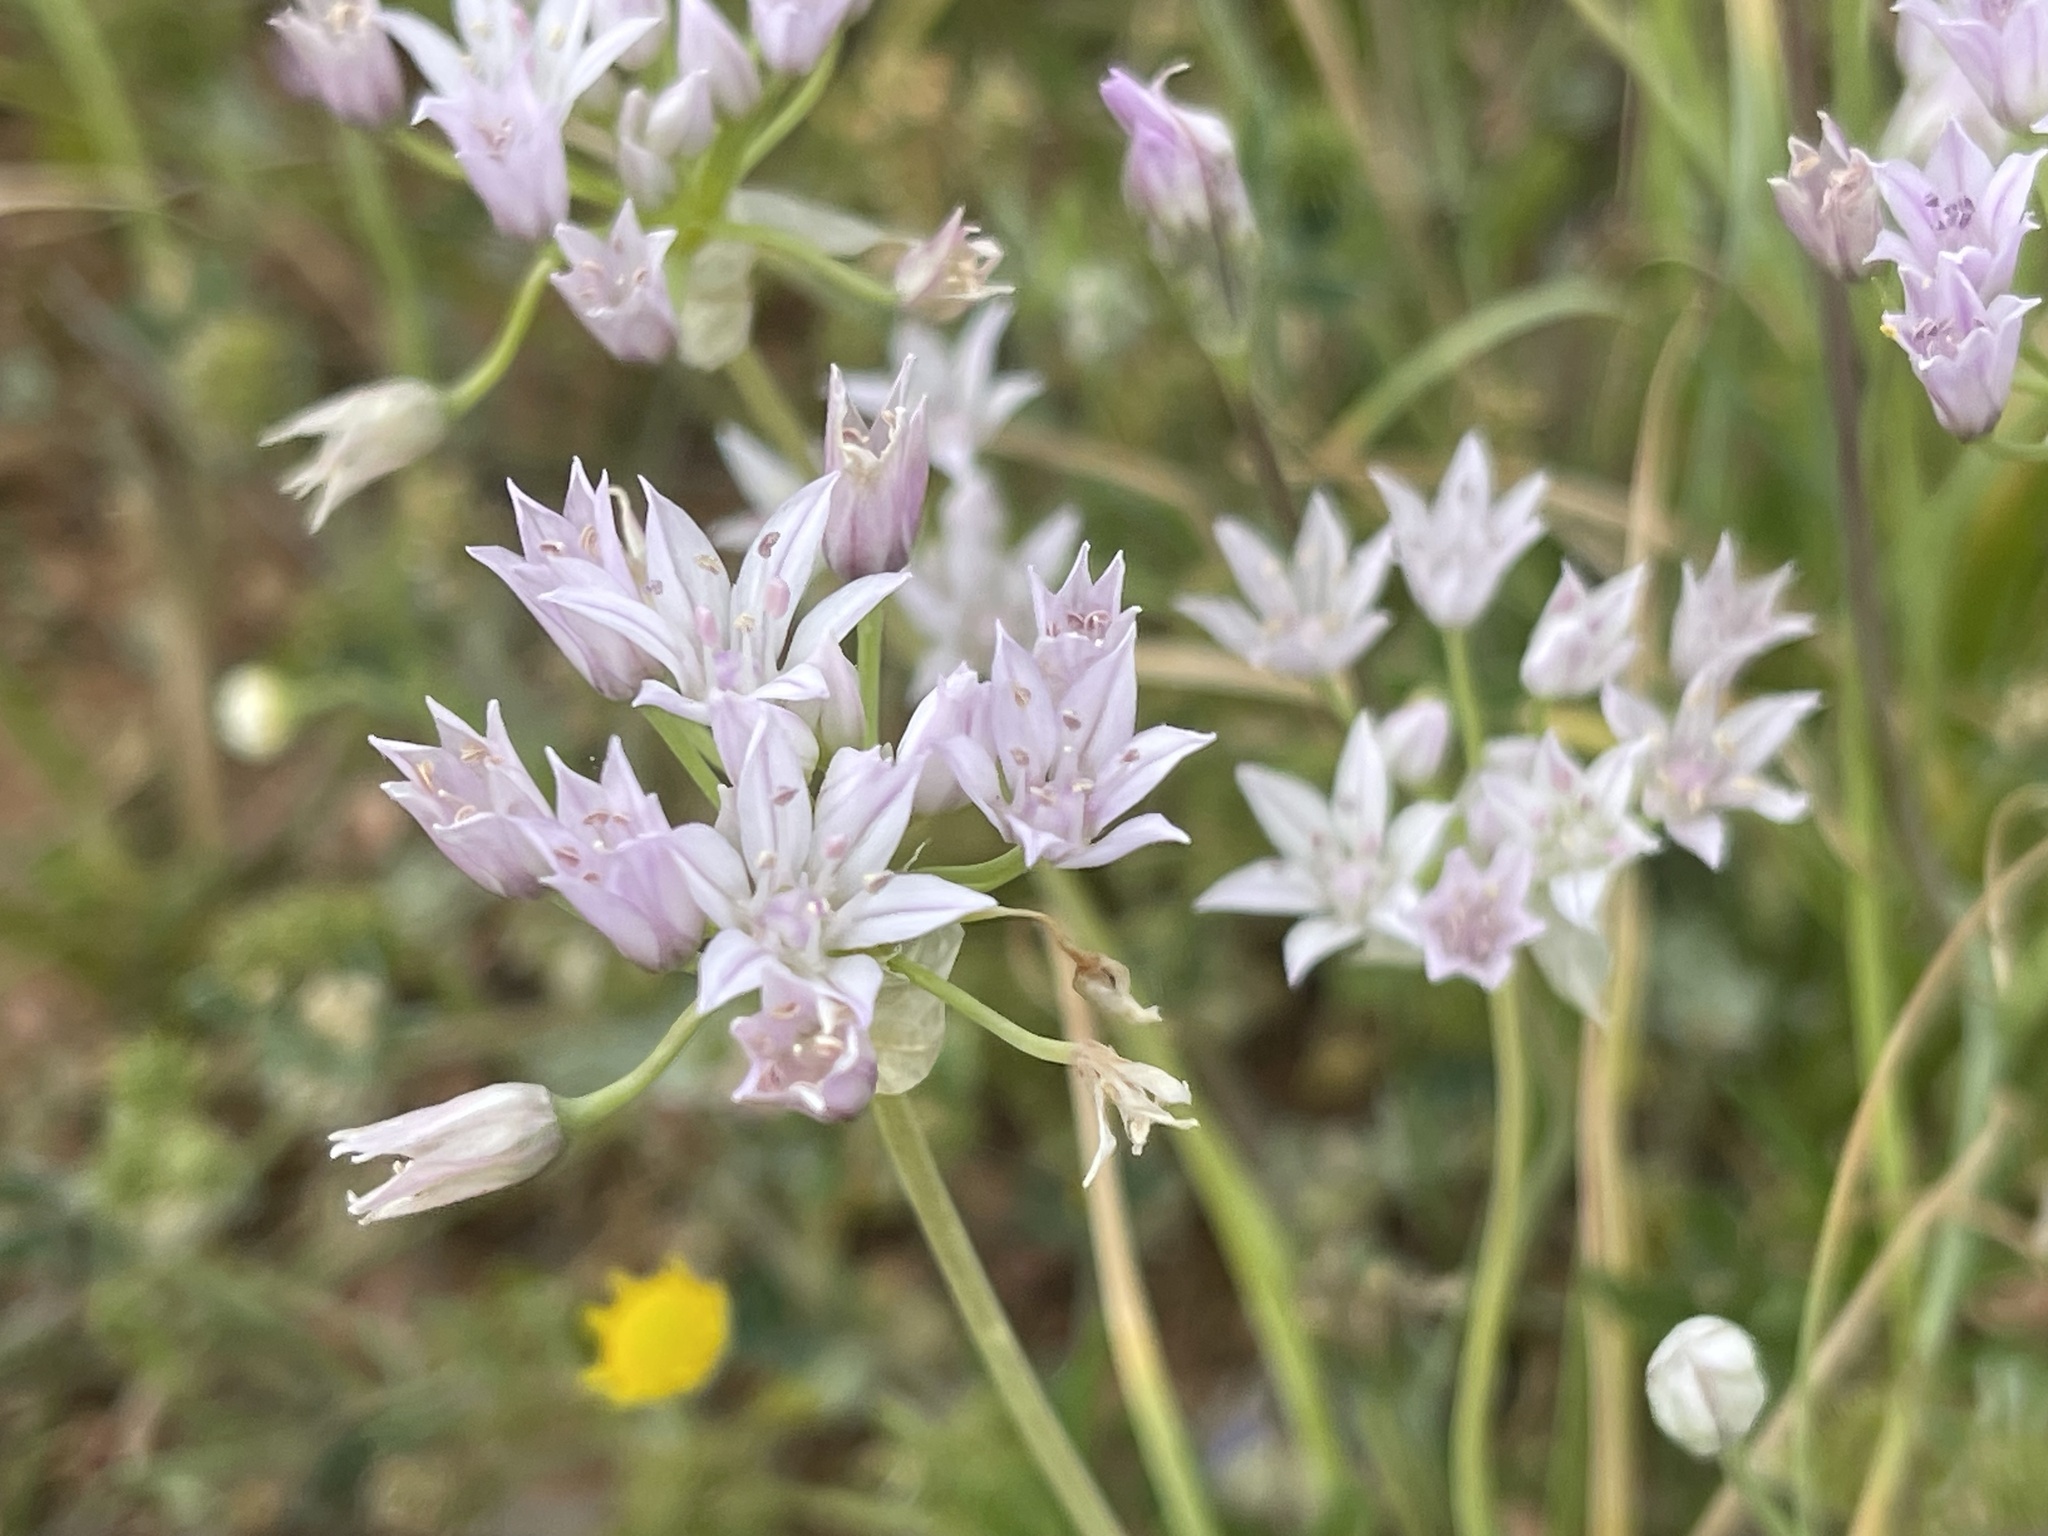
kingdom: Plantae
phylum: Tracheophyta
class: Liliopsida
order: Asparagales
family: Amaryllidaceae
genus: Allium
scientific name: Allium drummondii
